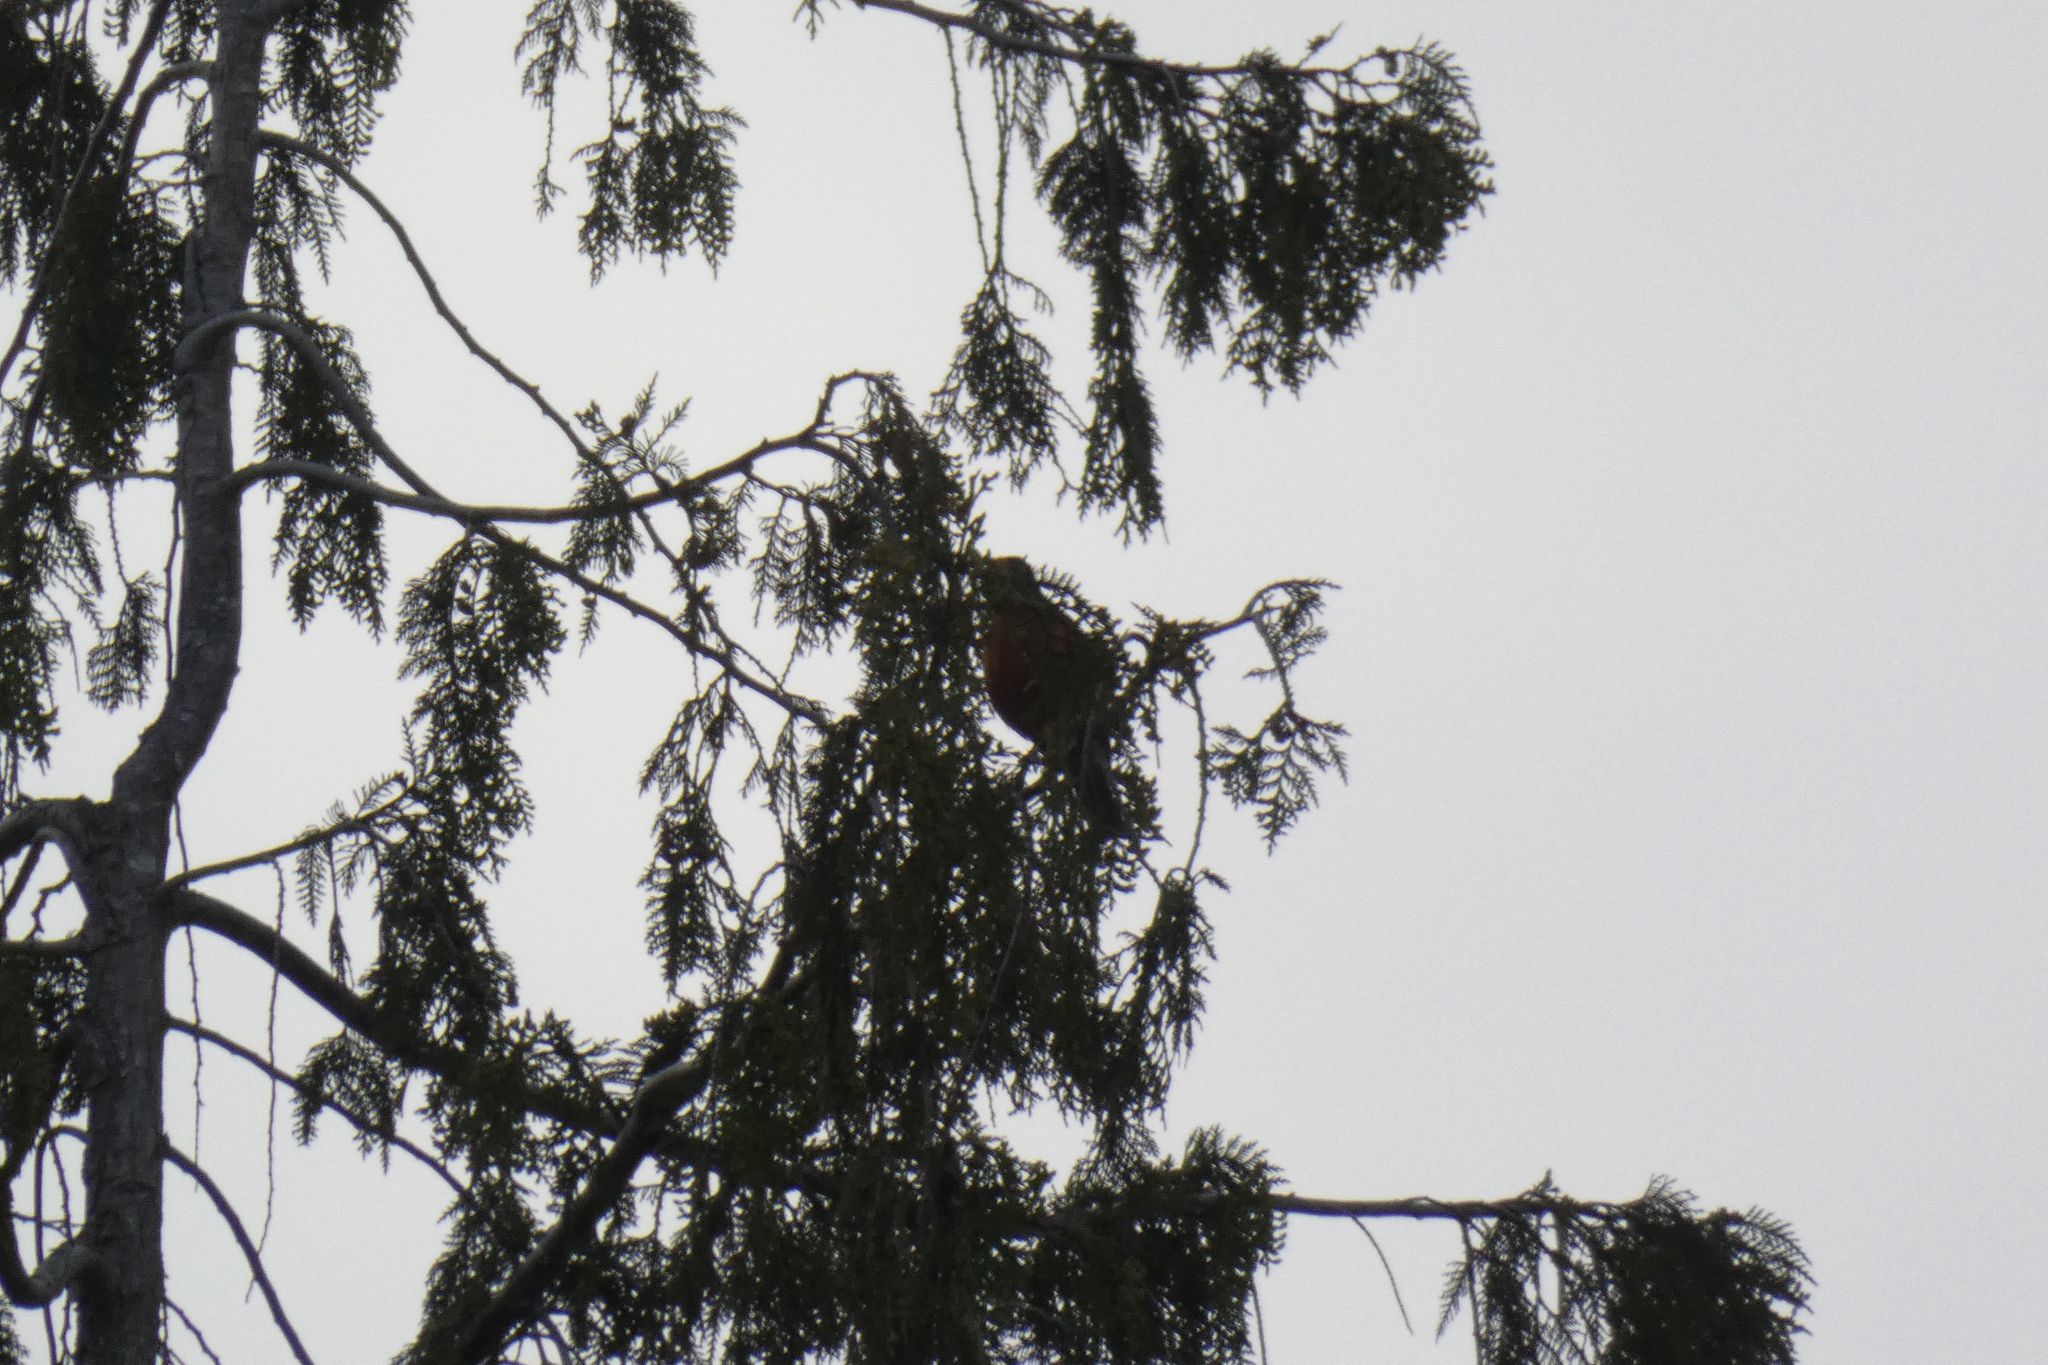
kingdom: Animalia
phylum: Chordata
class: Aves
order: Passeriformes
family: Turdidae
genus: Turdus
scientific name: Turdus migratorius
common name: American robin
